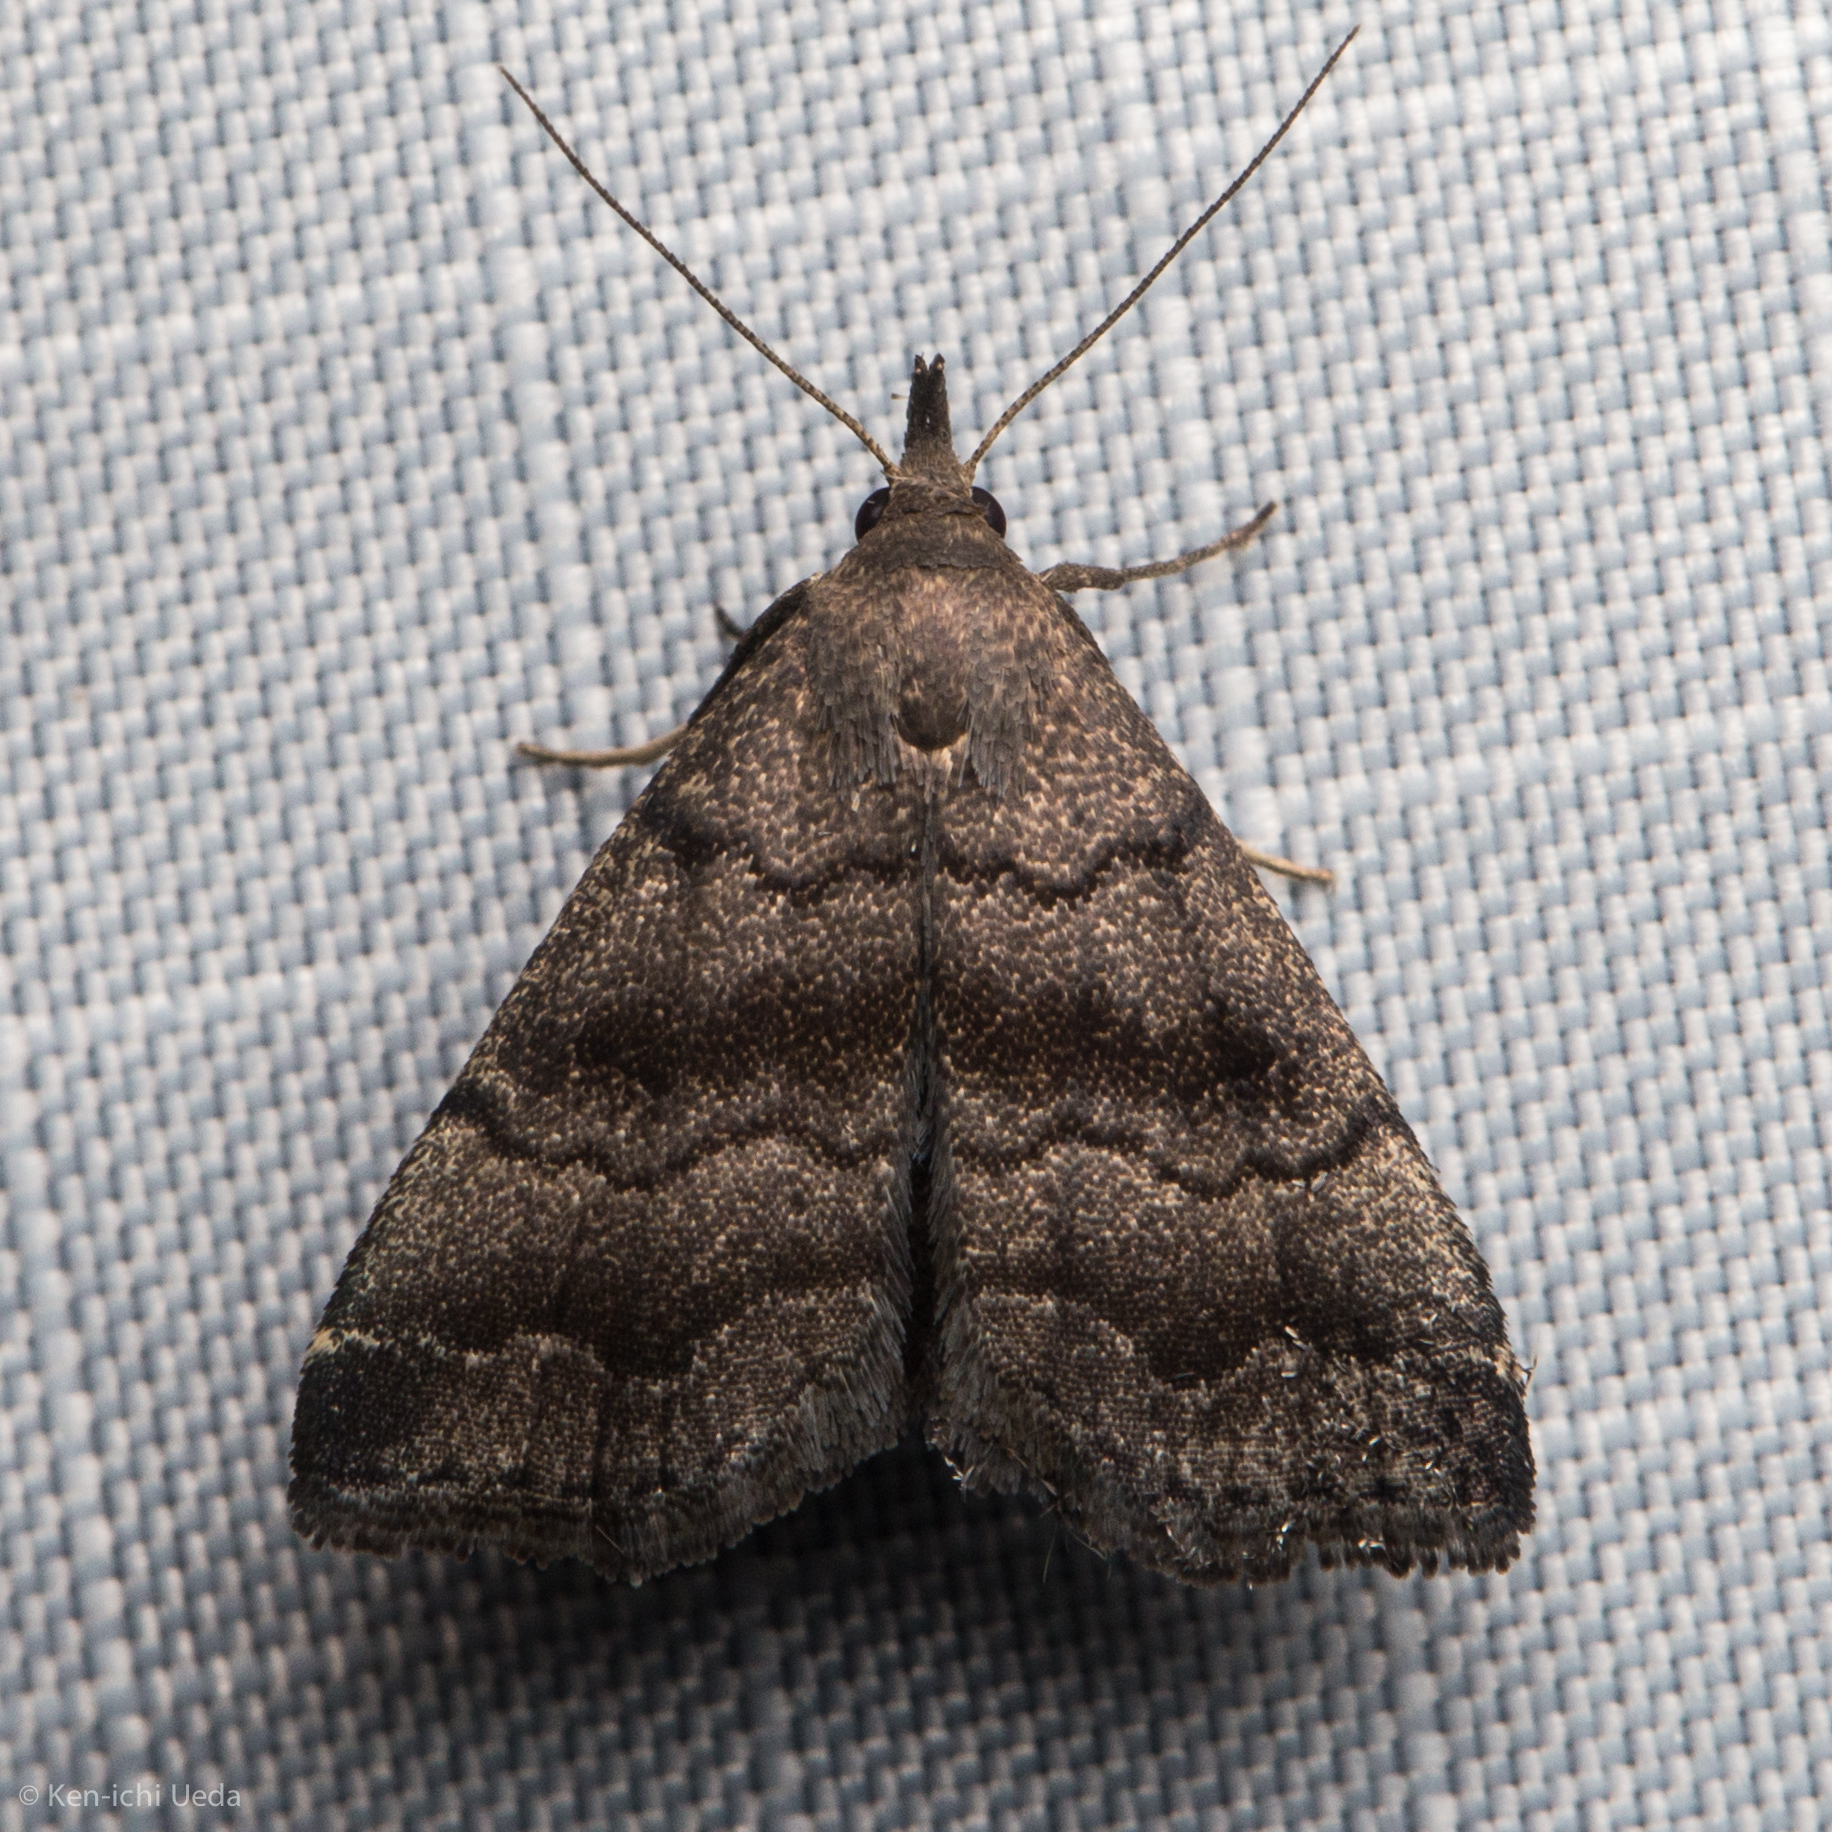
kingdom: Animalia
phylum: Arthropoda
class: Insecta
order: Lepidoptera
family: Erebidae
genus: Phalaenostola
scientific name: Phalaenostola larentioides
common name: Black-banded owlet
